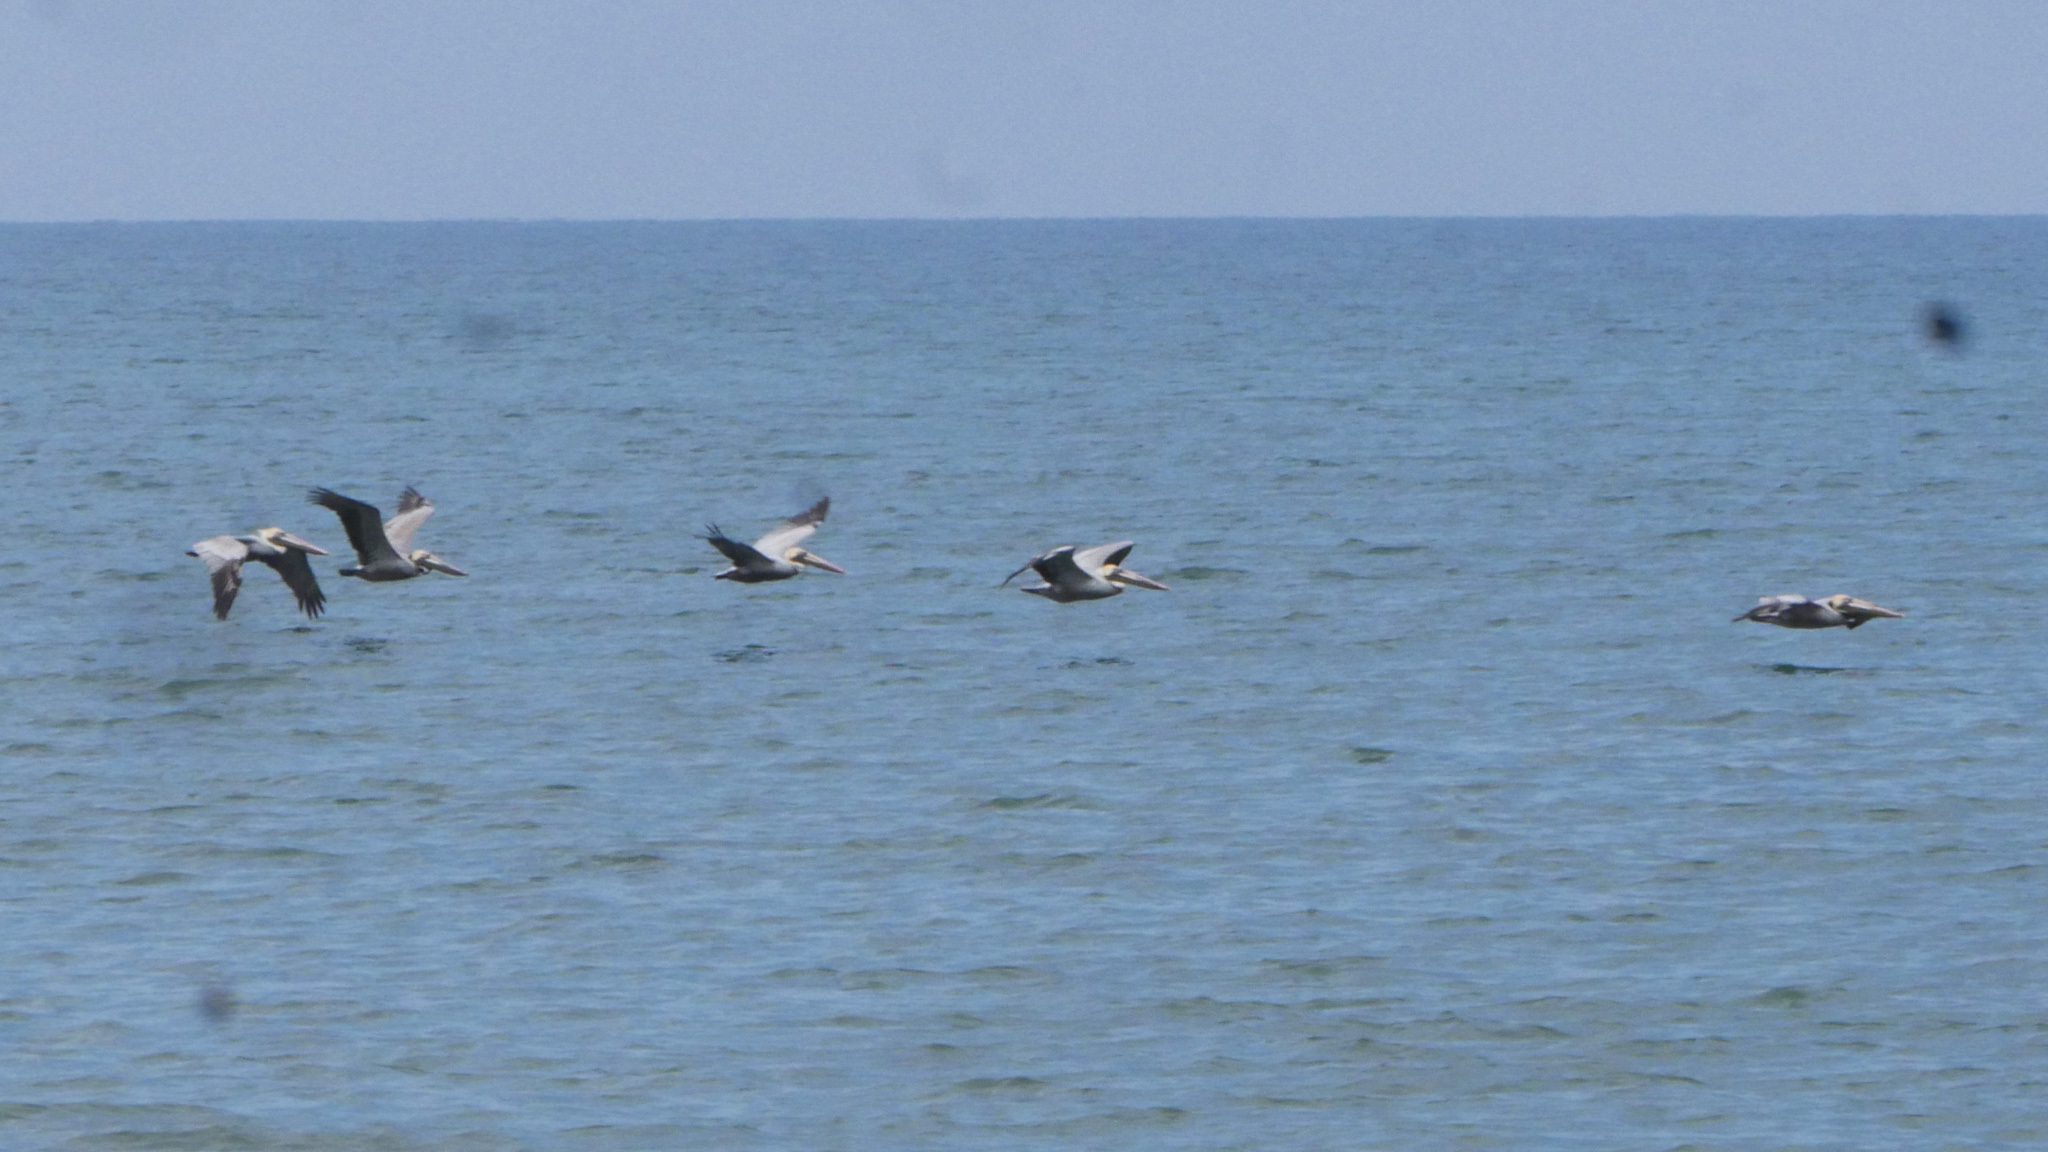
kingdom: Animalia
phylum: Chordata
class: Aves
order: Pelecaniformes
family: Pelecanidae
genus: Pelecanus
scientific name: Pelecanus occidentalis
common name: Brown pelican
